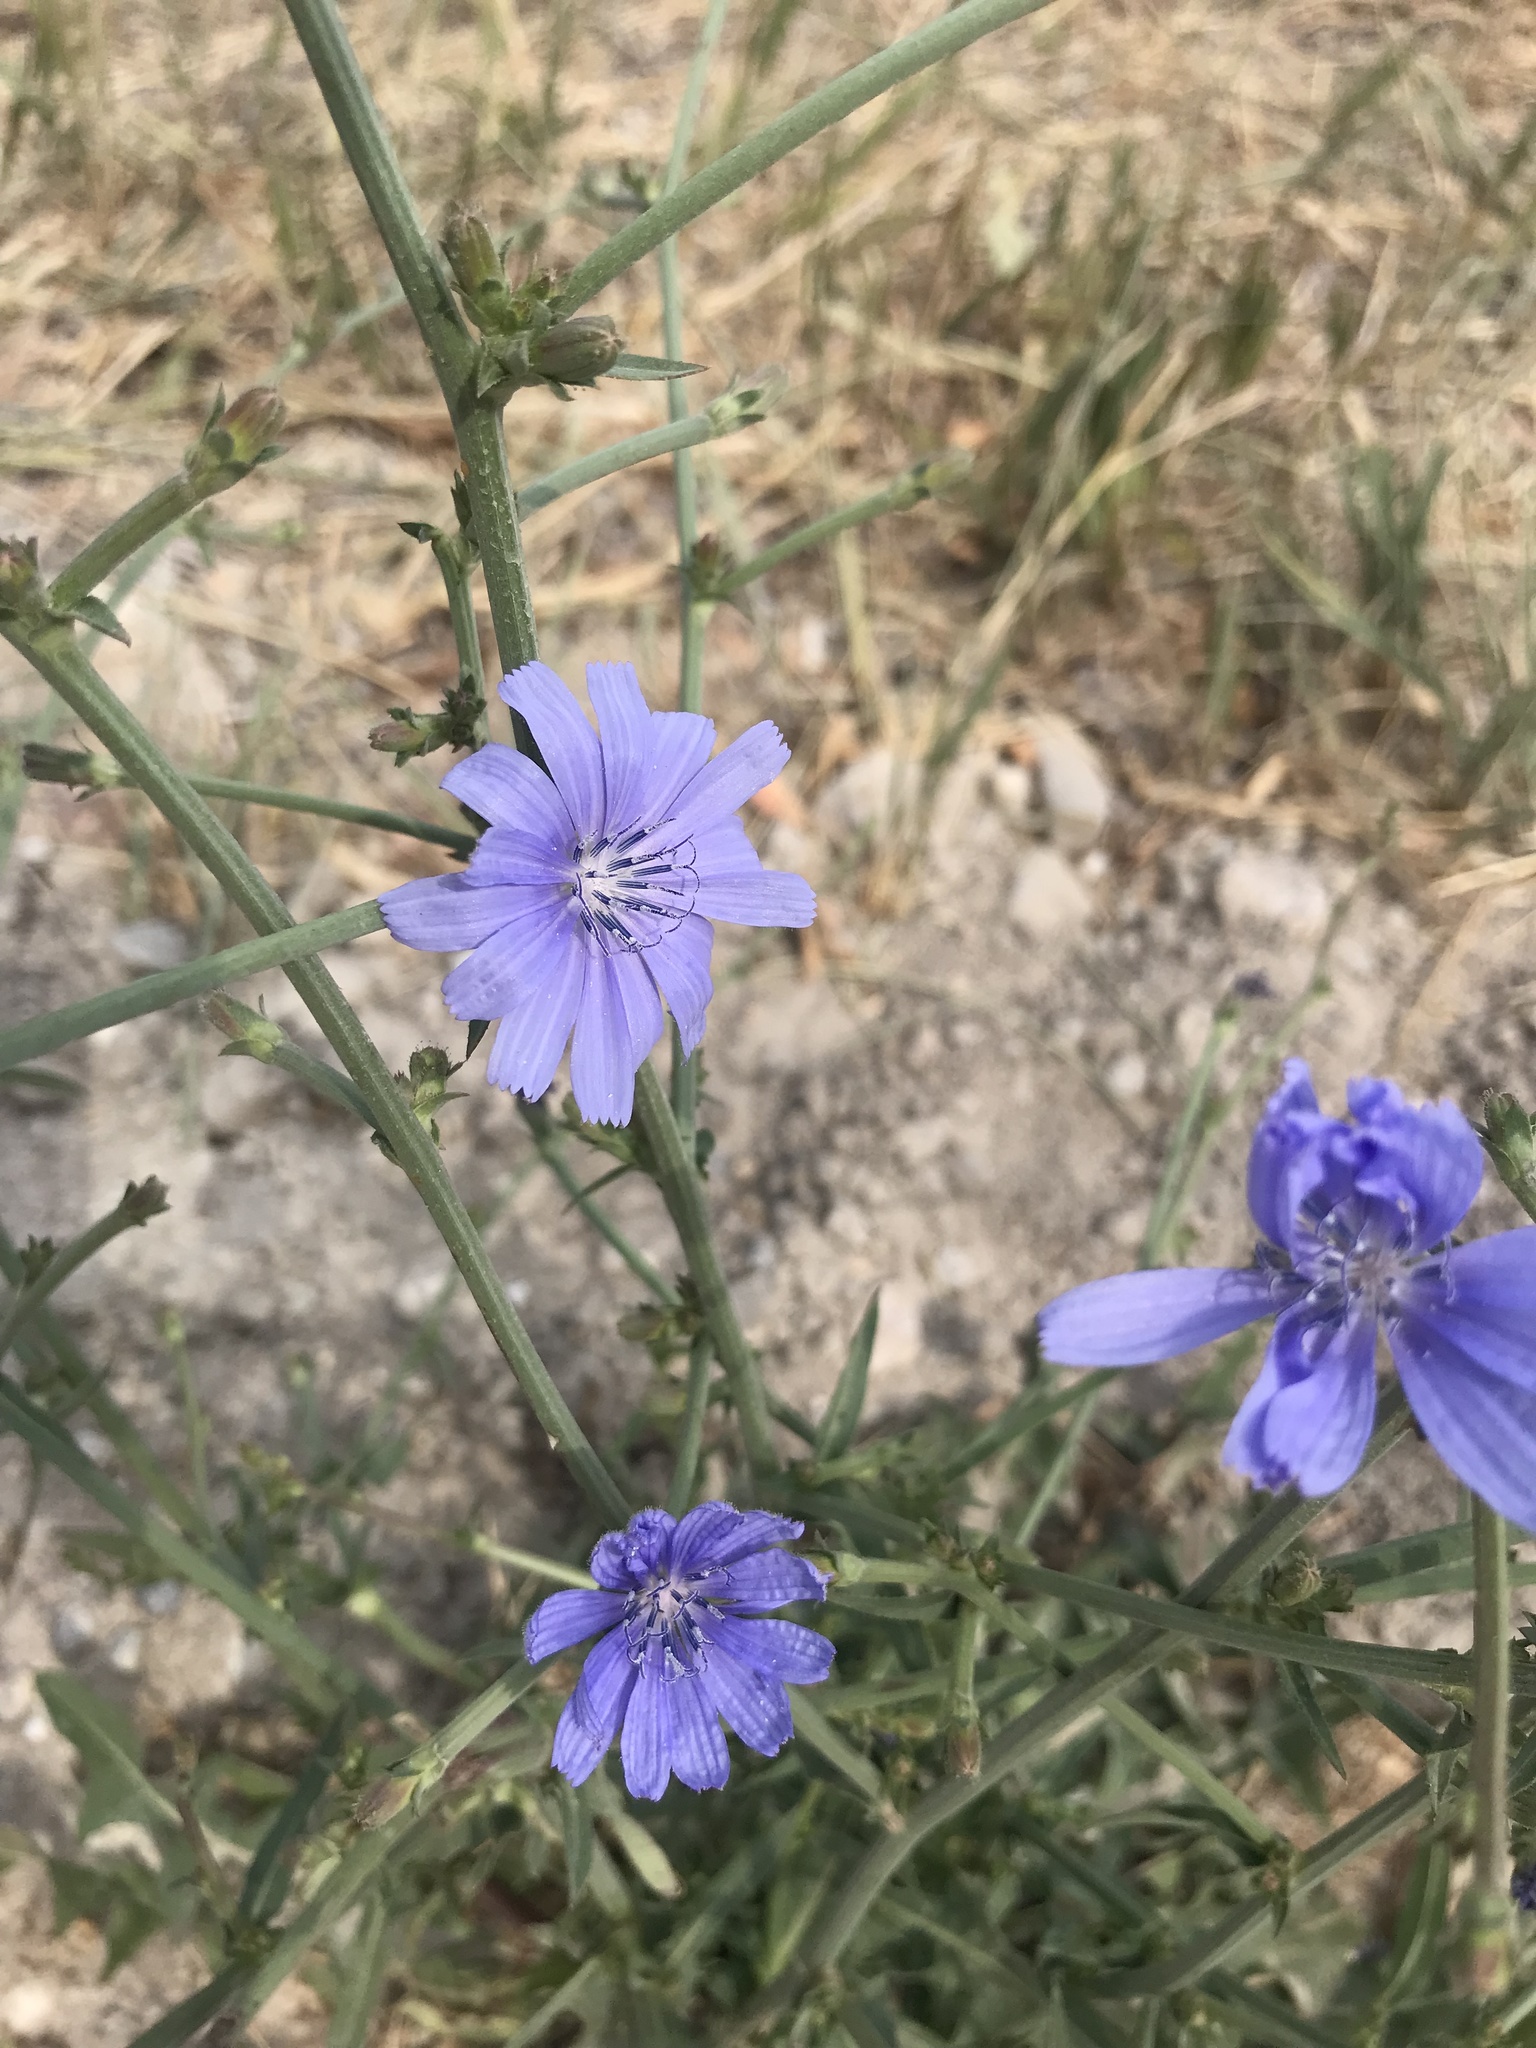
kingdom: Plantae
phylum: Tracheophyta
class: Magnoliopsida
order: Asterales
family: Asteraceae
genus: Cichorium
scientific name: Cichorium intybus
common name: Chicory
